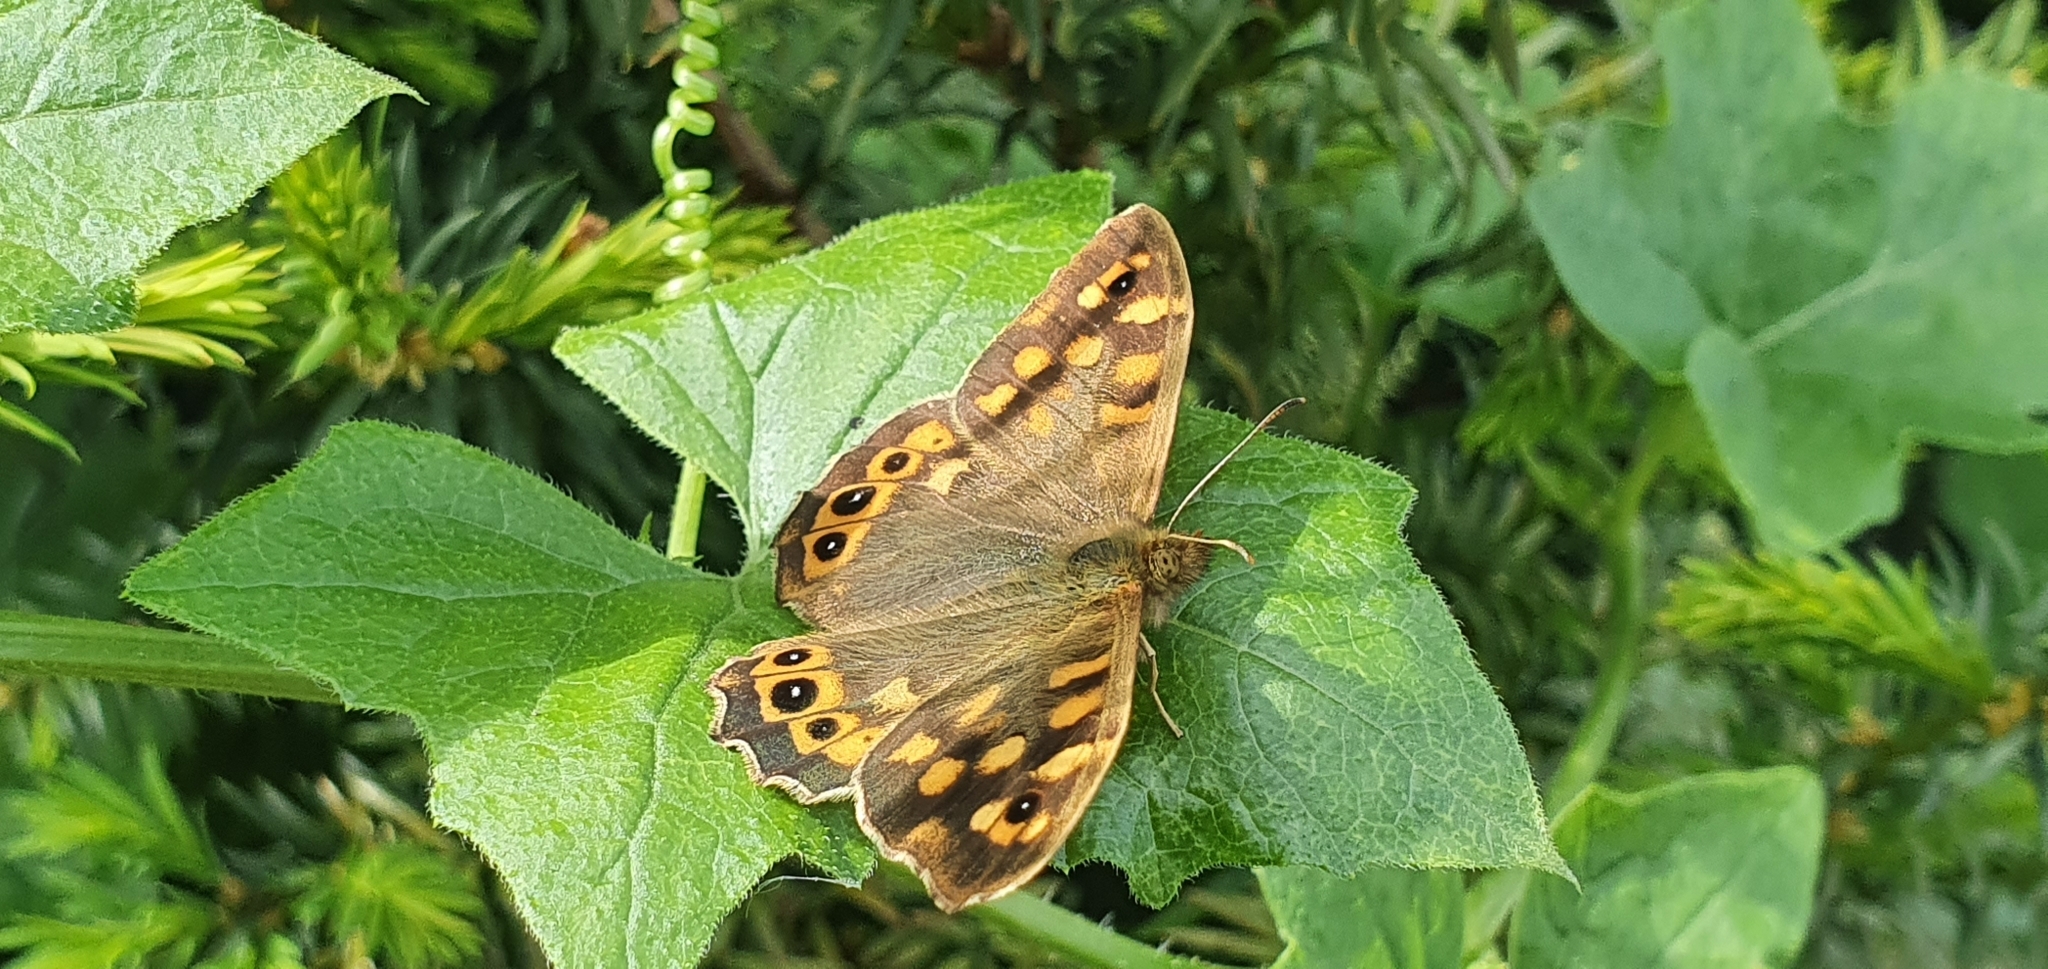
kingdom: Animalia
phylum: Arthropoda
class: Insecta
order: Lepidoptera
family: Nymphalidae
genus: Pararge
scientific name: Pararge aegeria
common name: Speckled wood
